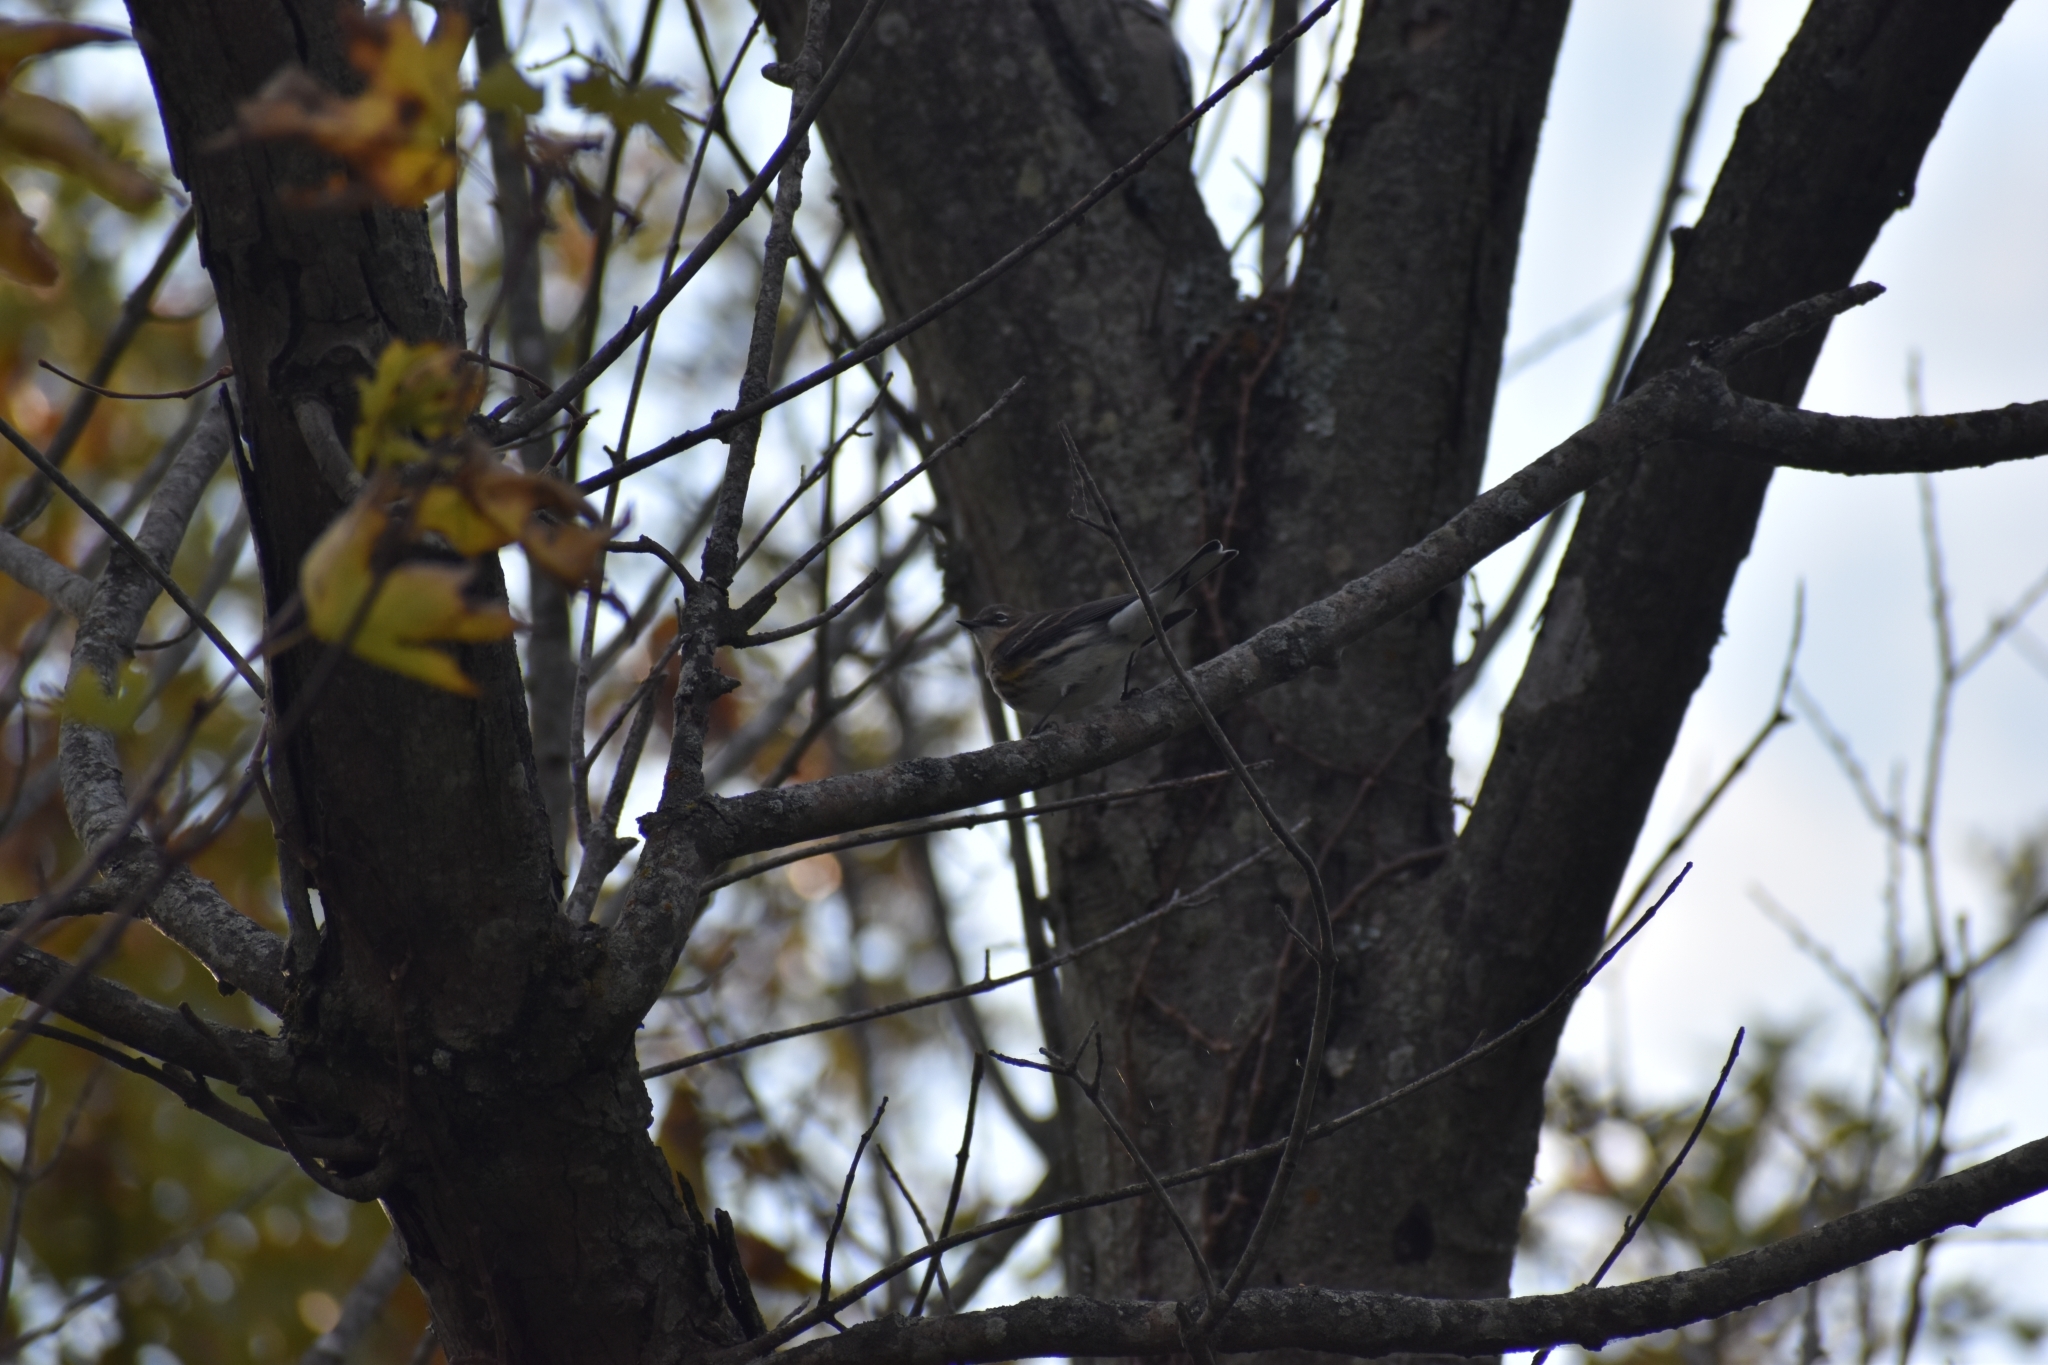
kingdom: Animalia
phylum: Chordata
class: Aves
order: Passeriformes
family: Parulidae
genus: Setophaga
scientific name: Setophaga coronata
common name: Myrtle warbler
